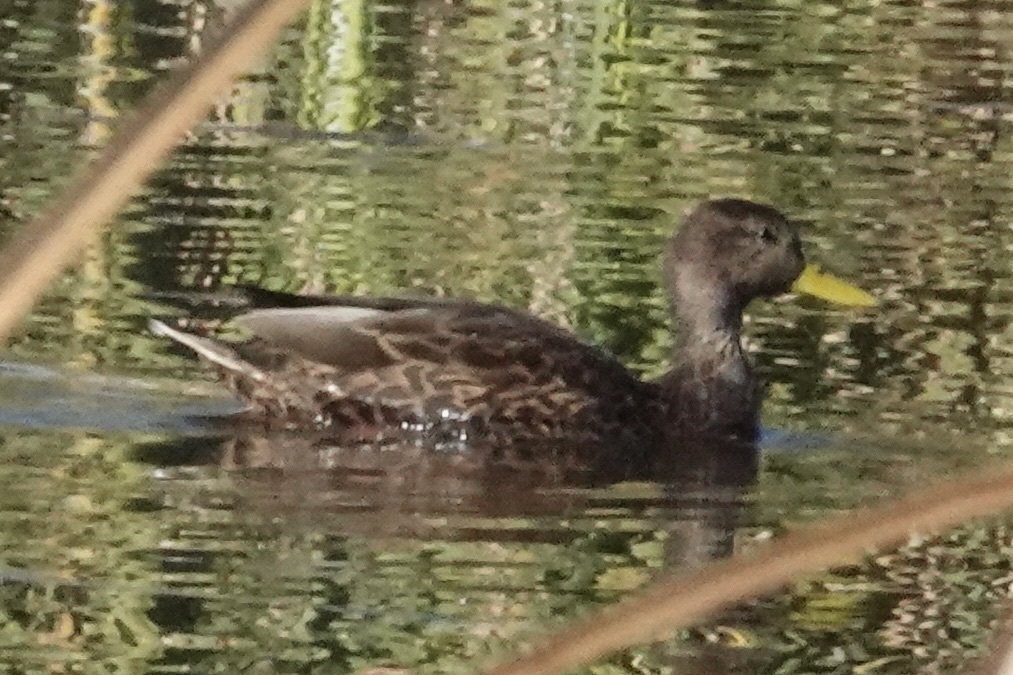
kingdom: Animalia
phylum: Chordata
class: Aves
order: Anseriformes
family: Anatidae
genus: Anas
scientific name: Anas diazi
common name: Mexican duck
